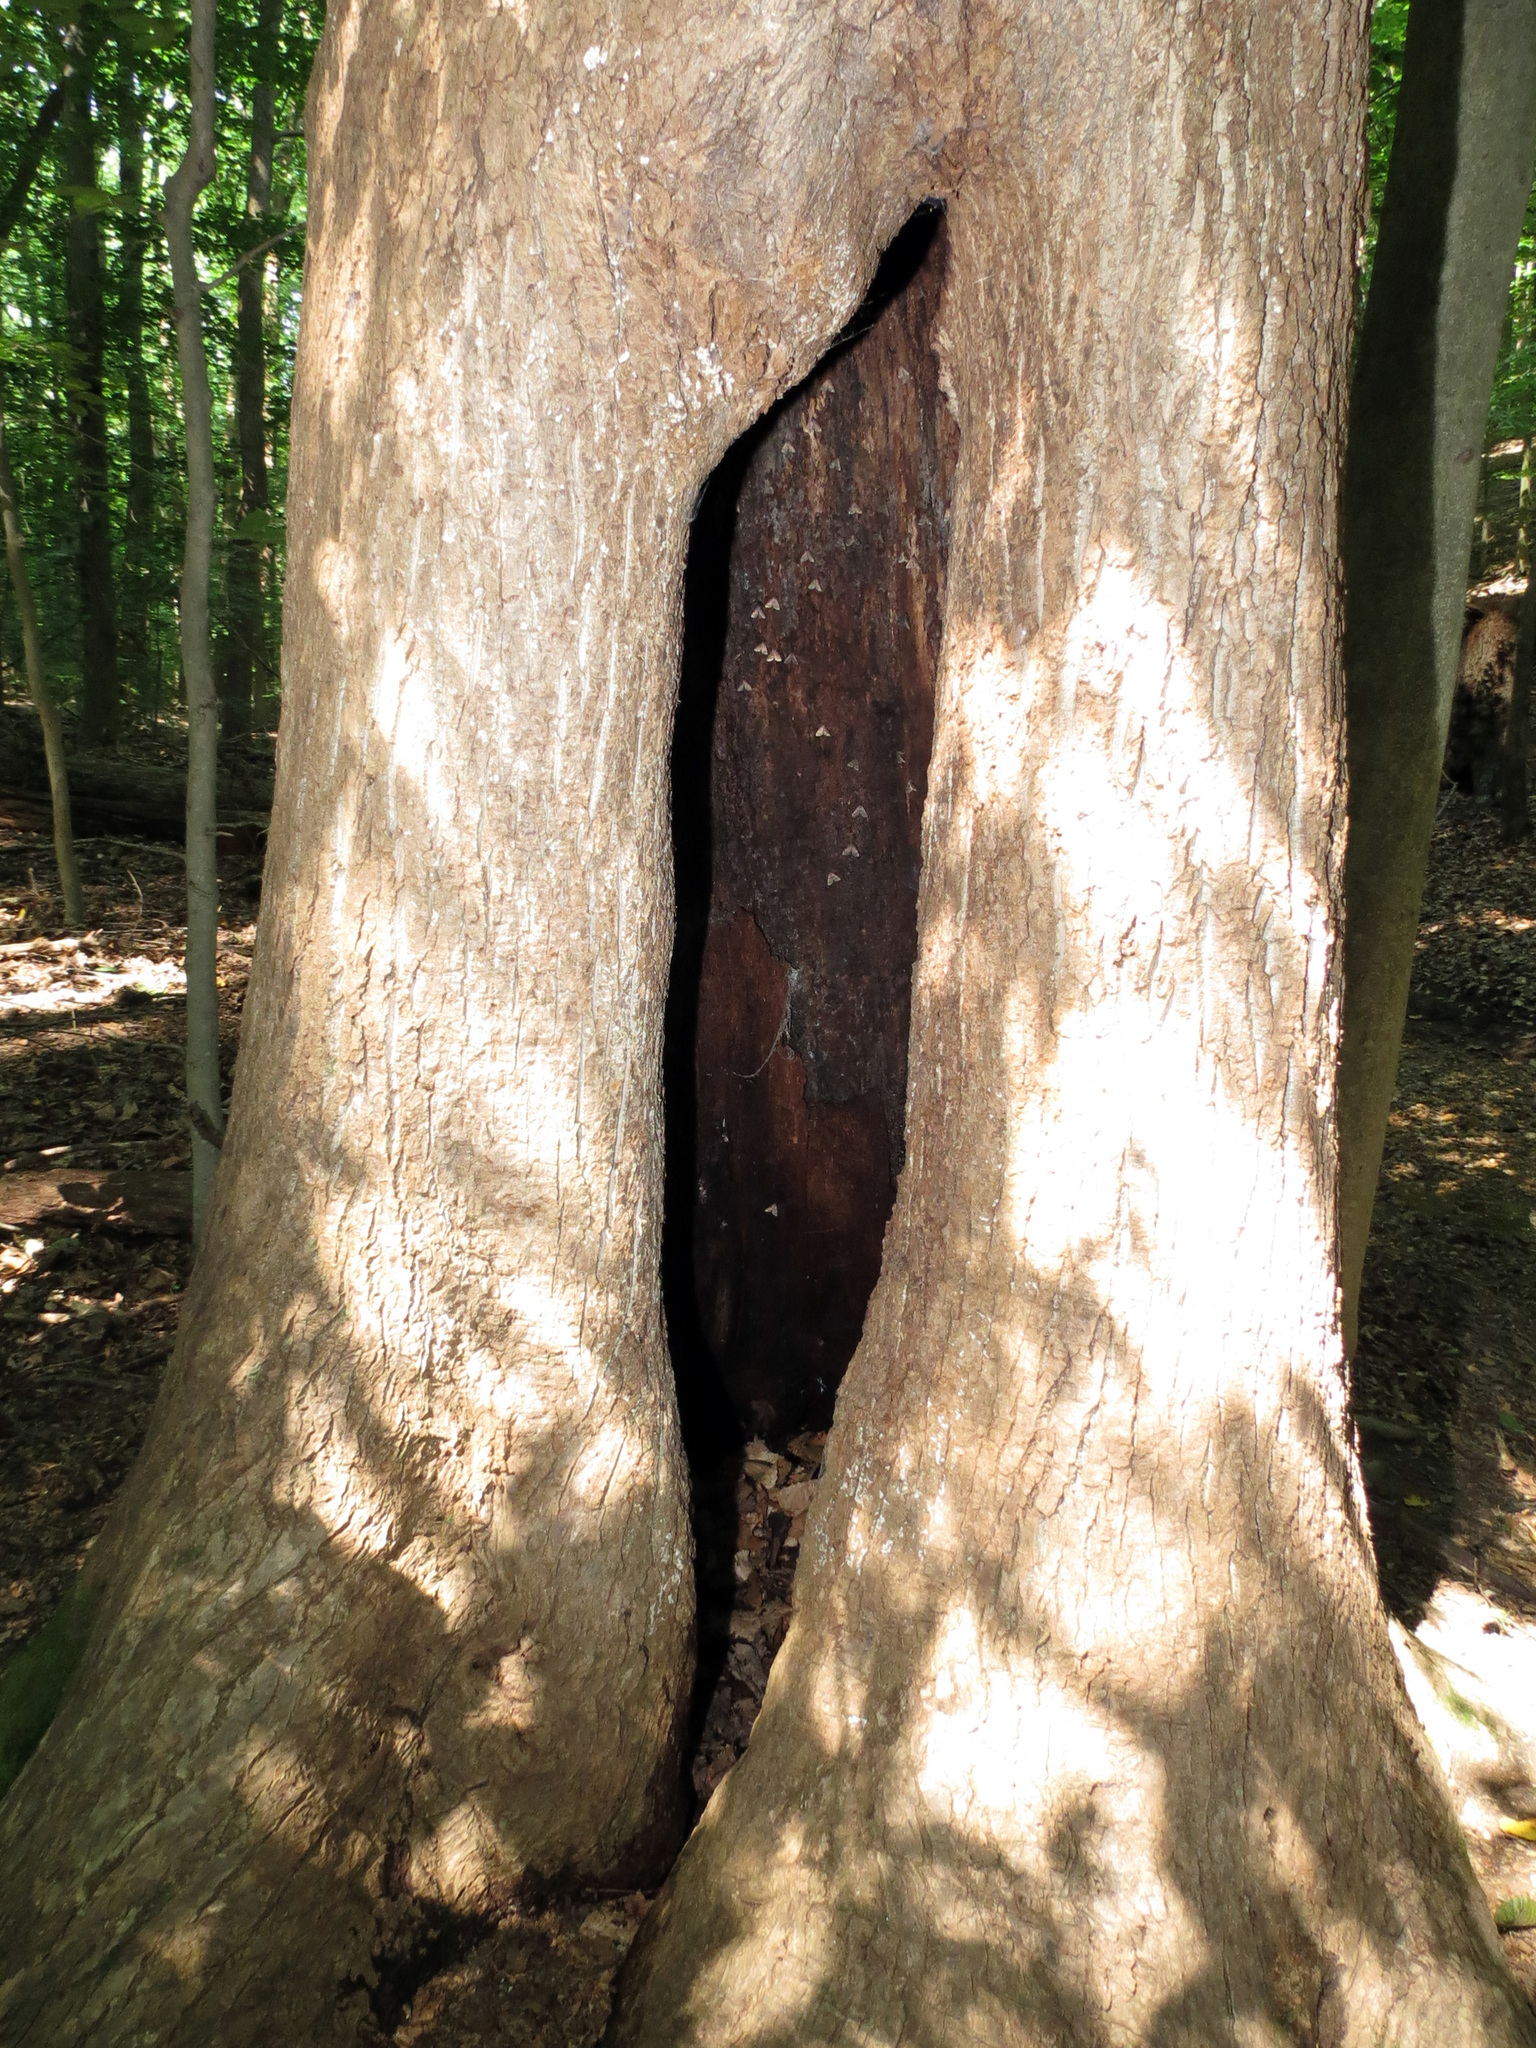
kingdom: Animalia
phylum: Arthropoda
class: Insecta
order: Lepidoptera
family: Erebidae
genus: Idia
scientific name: Idia lubricalis
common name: Twin-striped tabby
